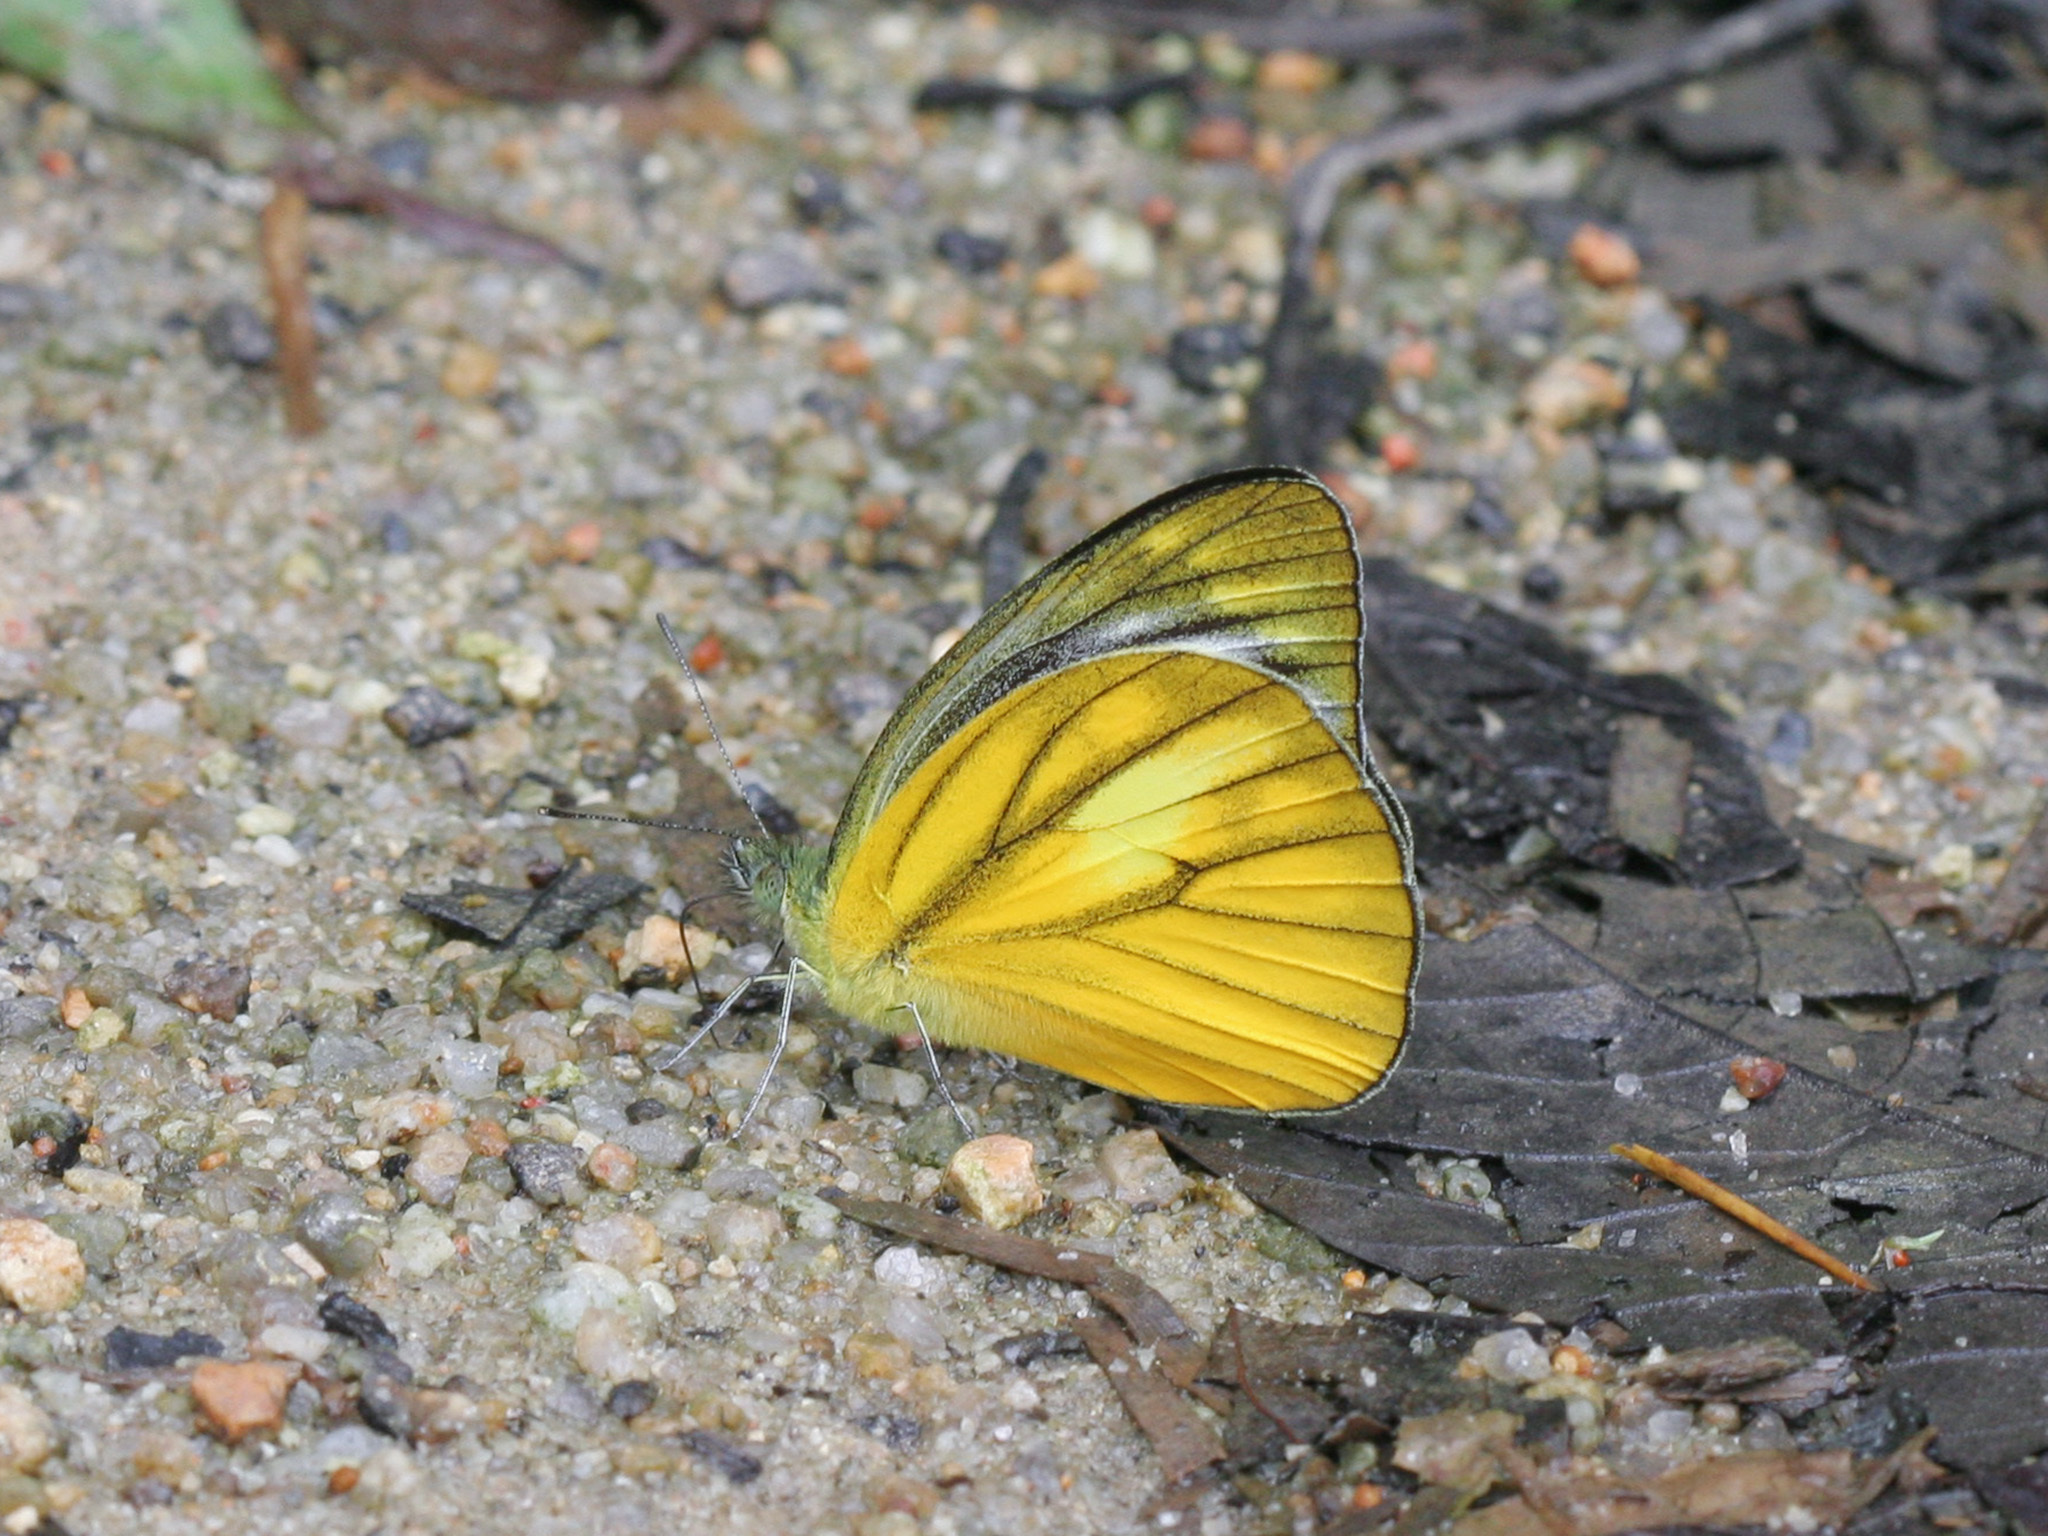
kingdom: Animalia
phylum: Arthropoda
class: Insecta
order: Lepidoptera
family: Pieridae
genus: Cepora
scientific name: Cepora nadina
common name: Lesser gull
